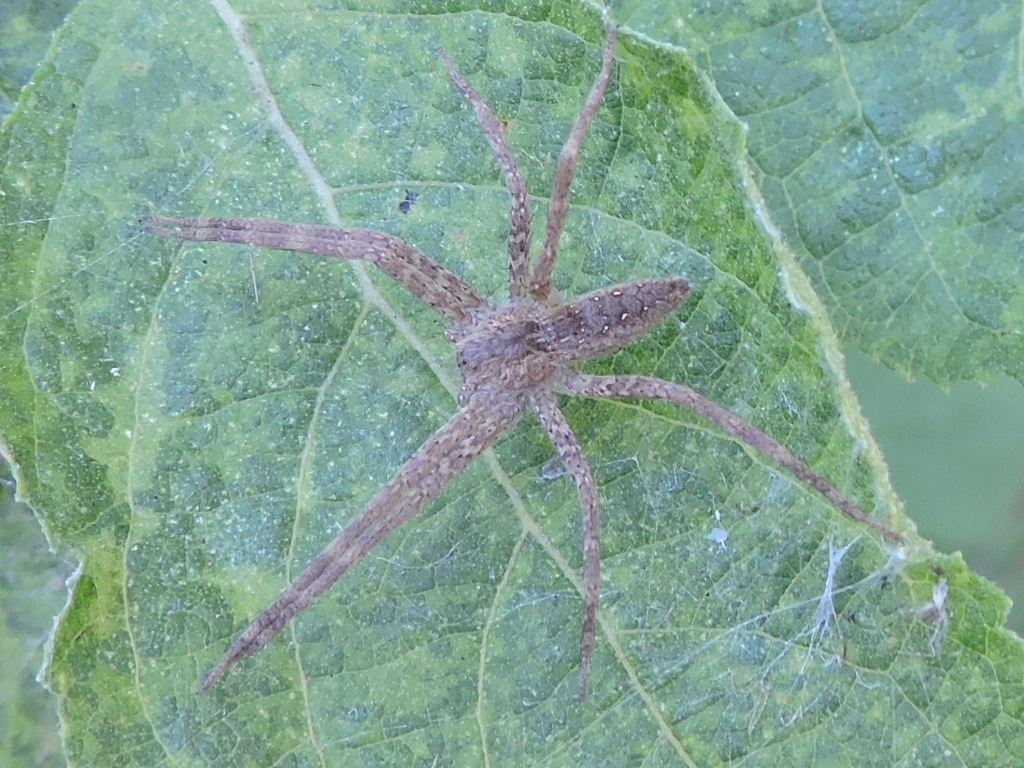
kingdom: Animalia
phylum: Arthropoda
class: Arachnida
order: Araneae
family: Pisauridae
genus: Pisaurina
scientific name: Pisaurina mira
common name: American nursery web spider
